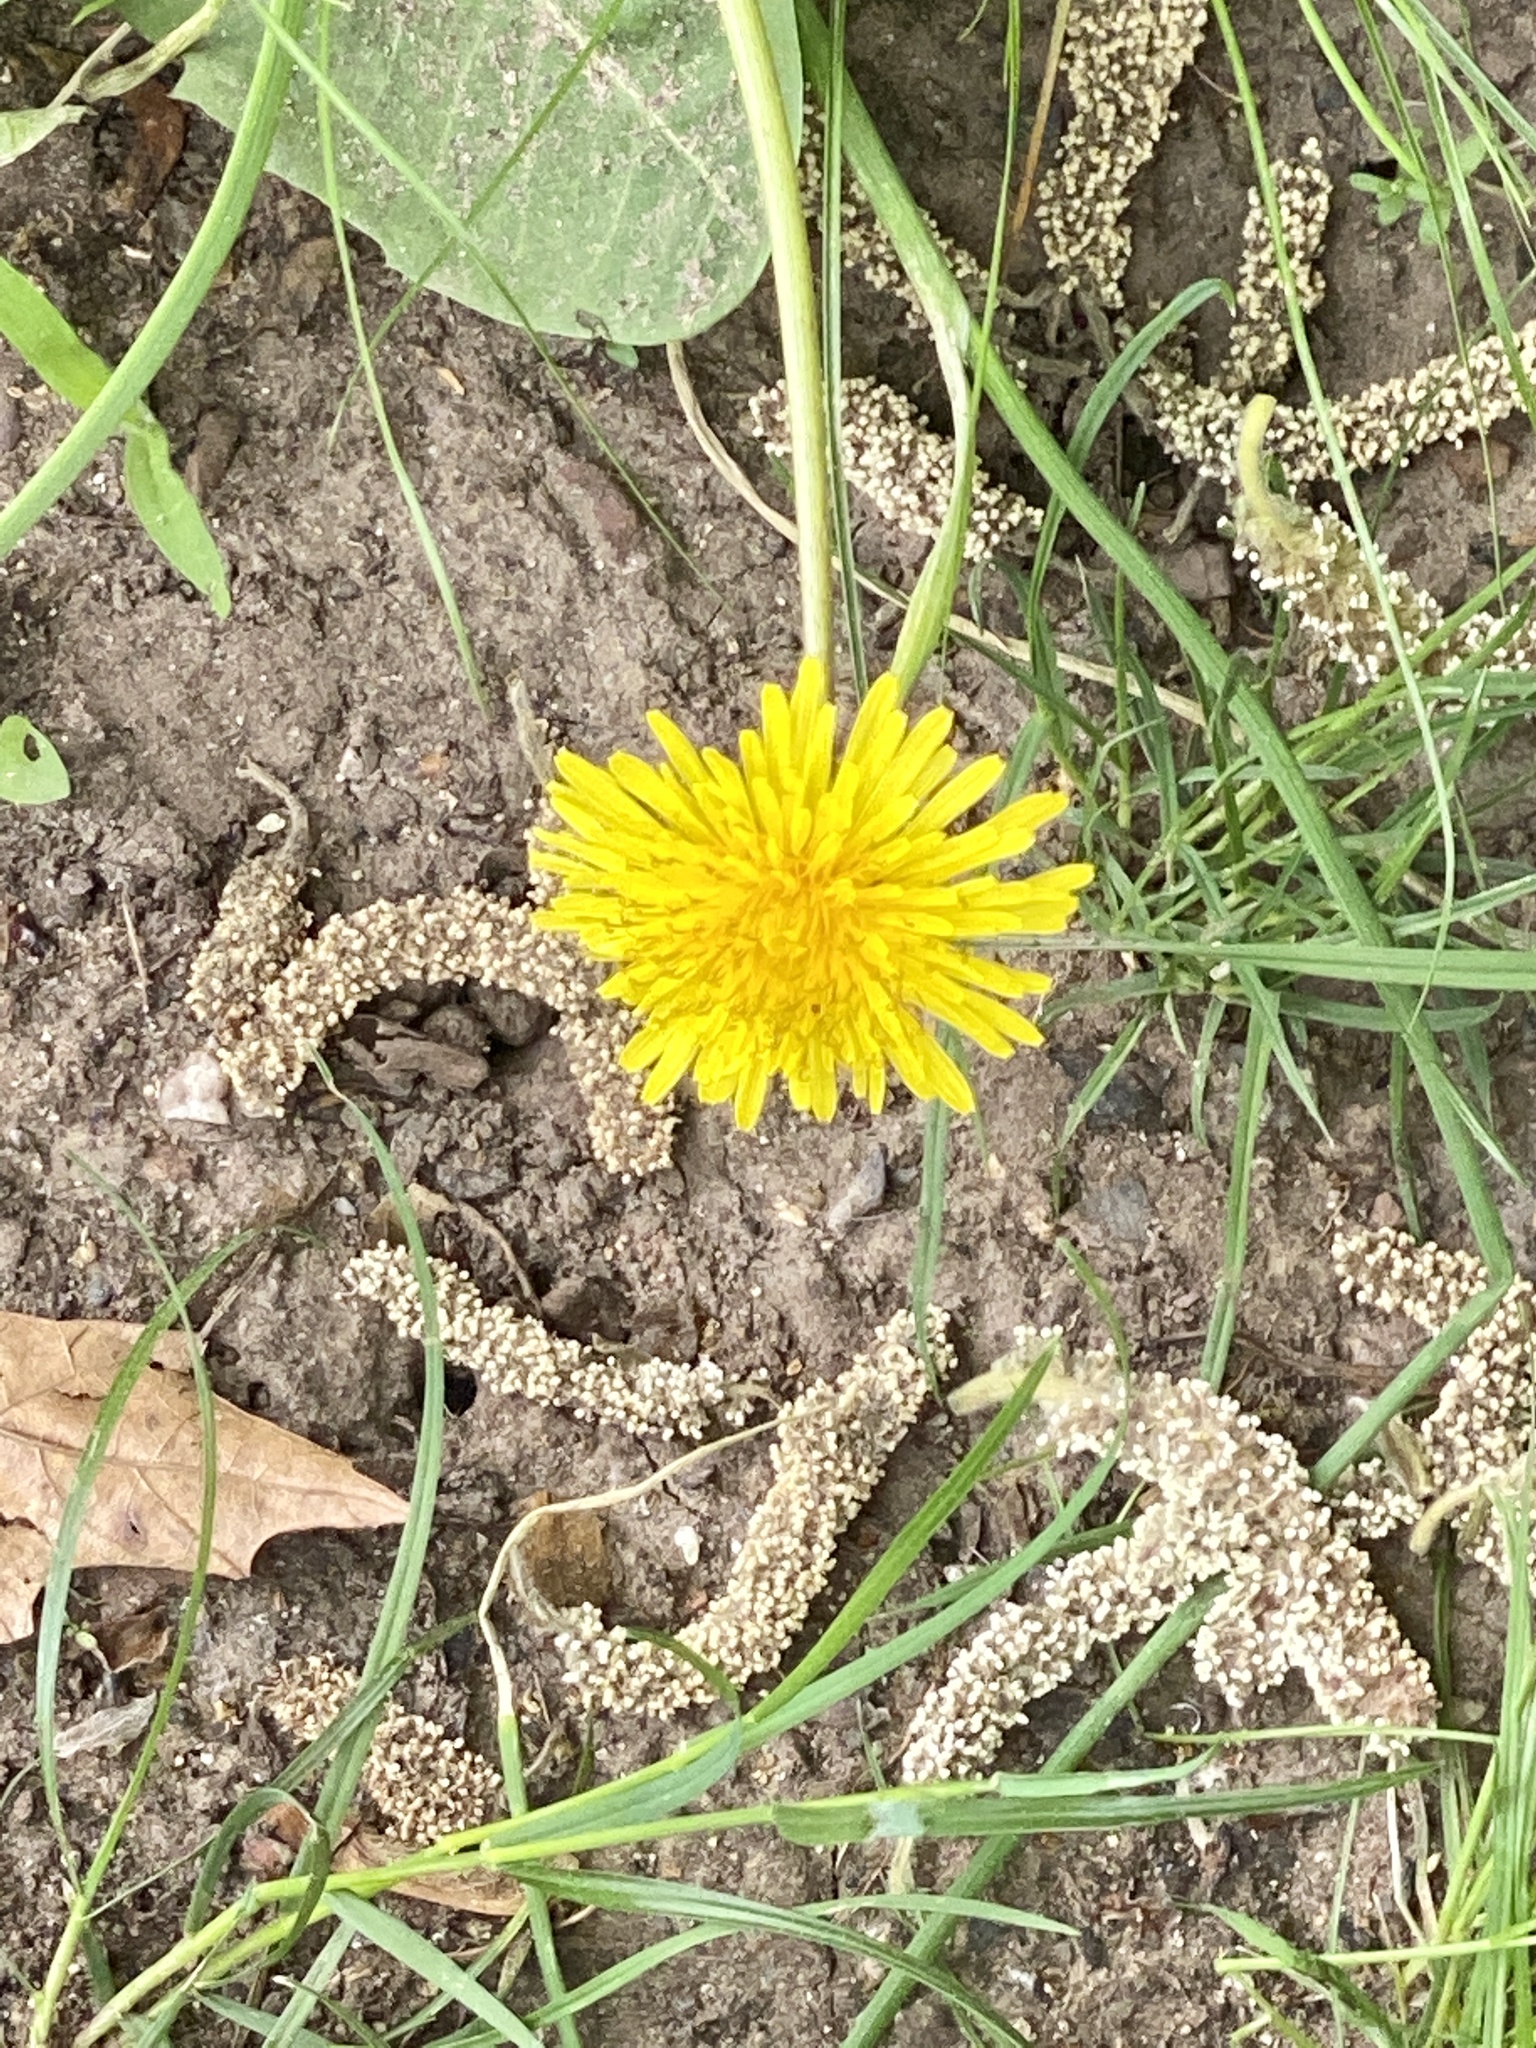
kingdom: Plantae
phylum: Tracheophyta
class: Magnoliopsida
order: Asterales
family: Asteraceae
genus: Taraxacum
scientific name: Taraxacum officinale
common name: Common dandelion
